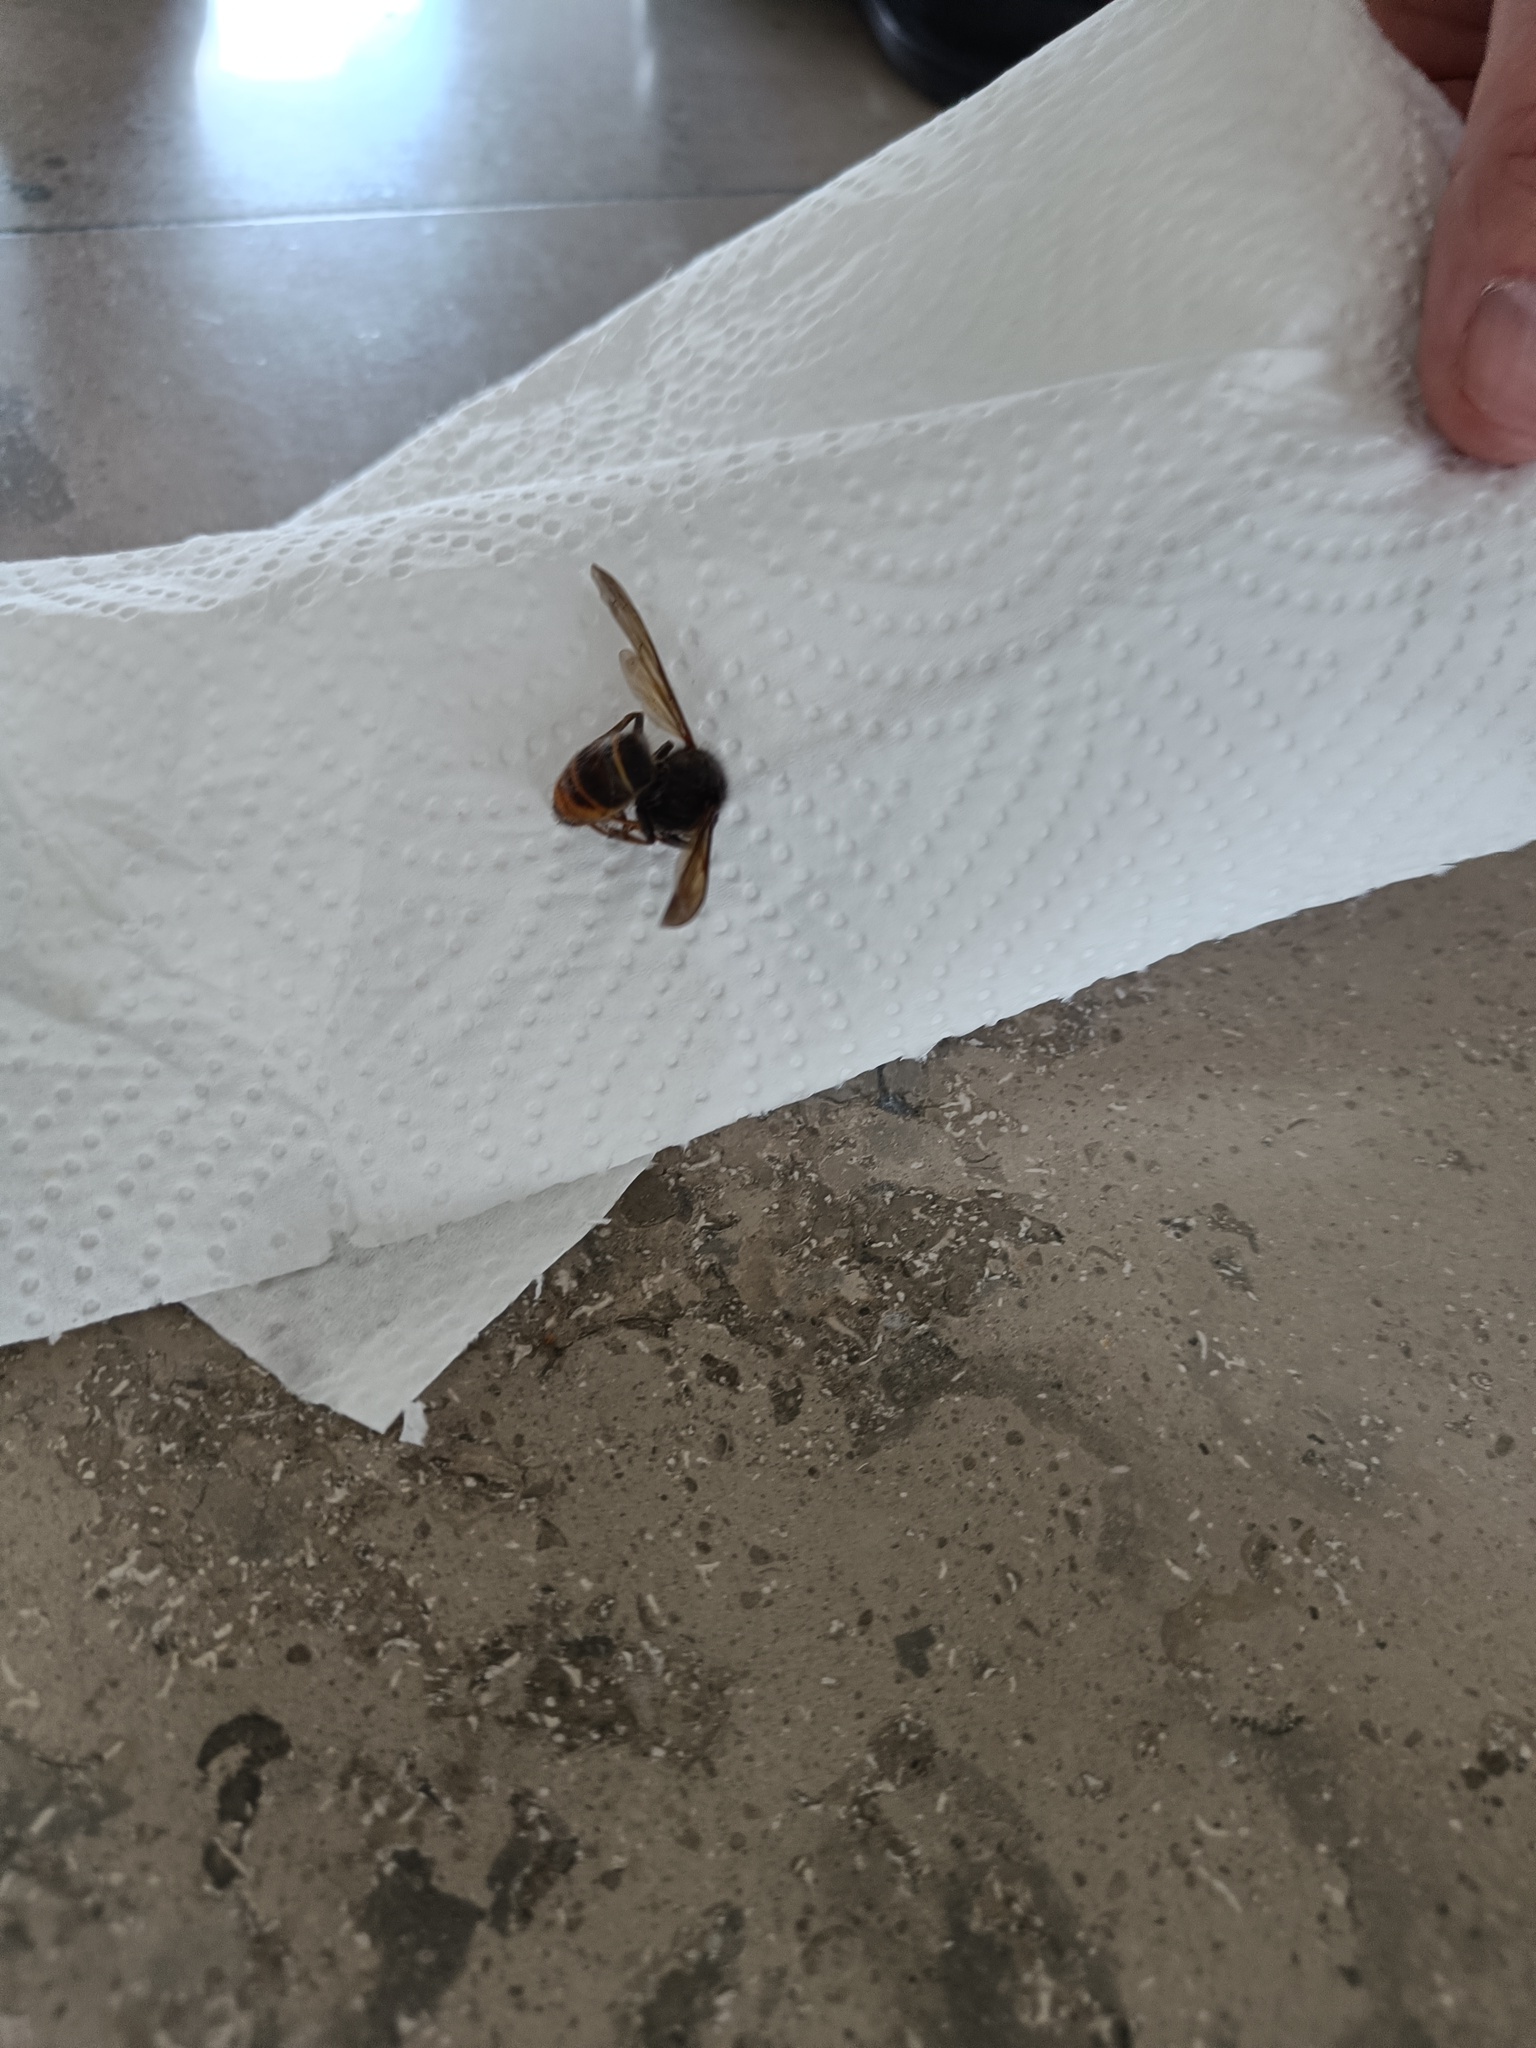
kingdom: Animalia
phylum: Arthropoda
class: Insecta
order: Hymenoptera
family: Vespidae
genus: Vespa
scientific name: Vespa velutina
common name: Asian hornet
